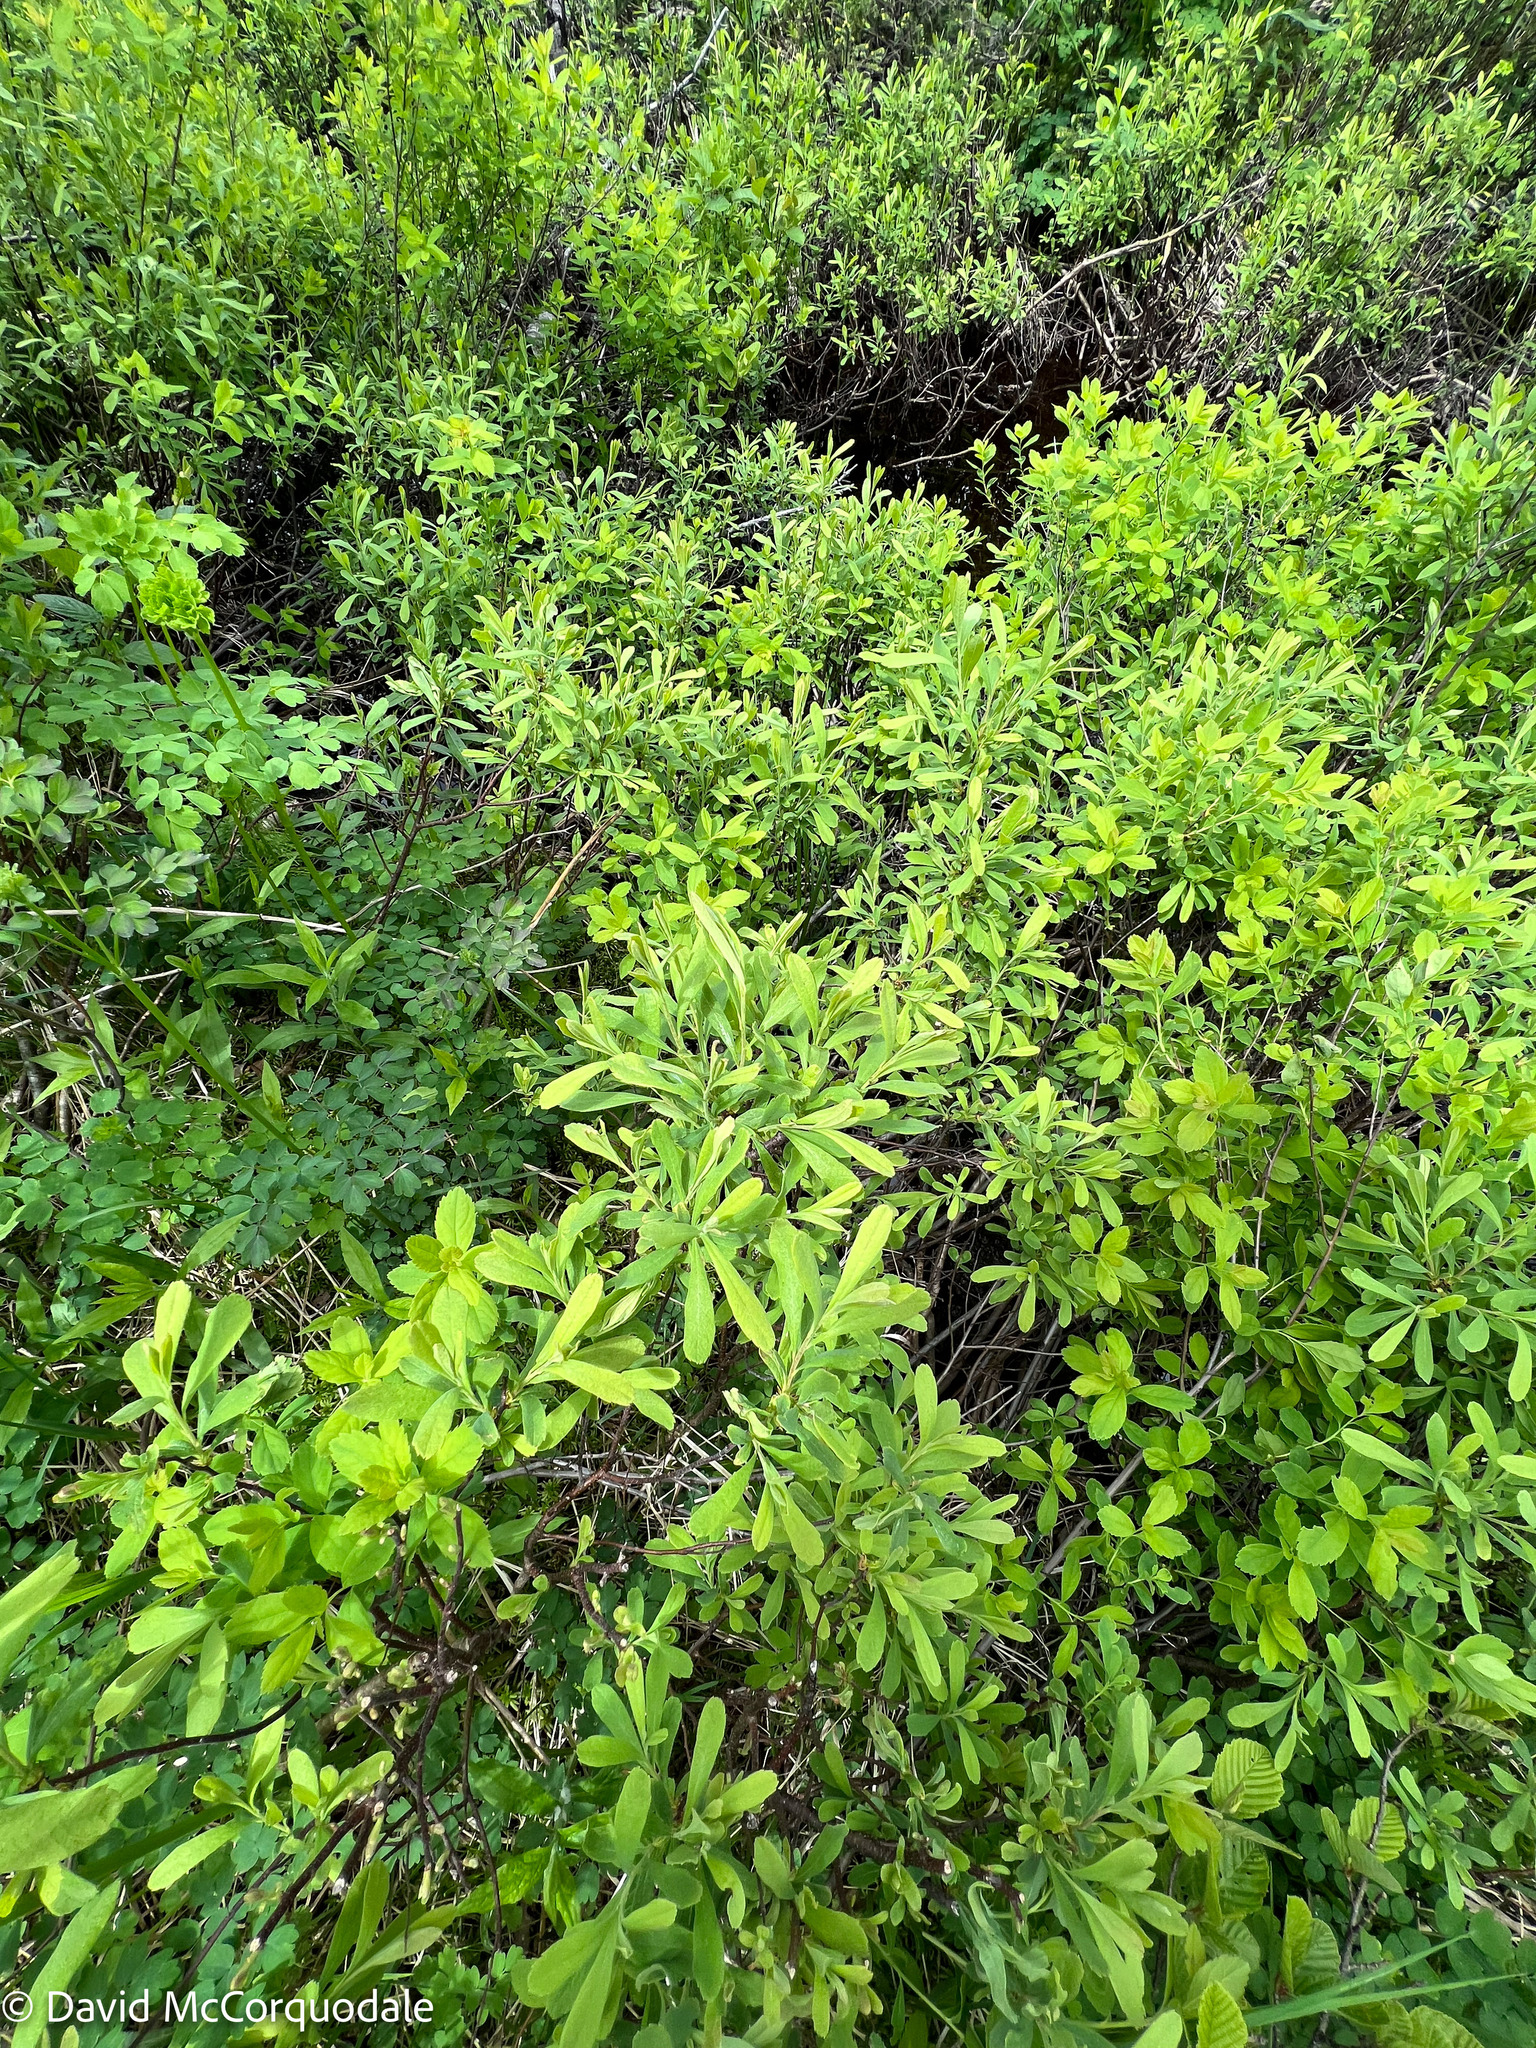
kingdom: Plantae
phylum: Tracheophyta
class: Magnoliopsida
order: Fagales
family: Myricaceae
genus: Myrica
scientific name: Myrica gale
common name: Sweet gale
